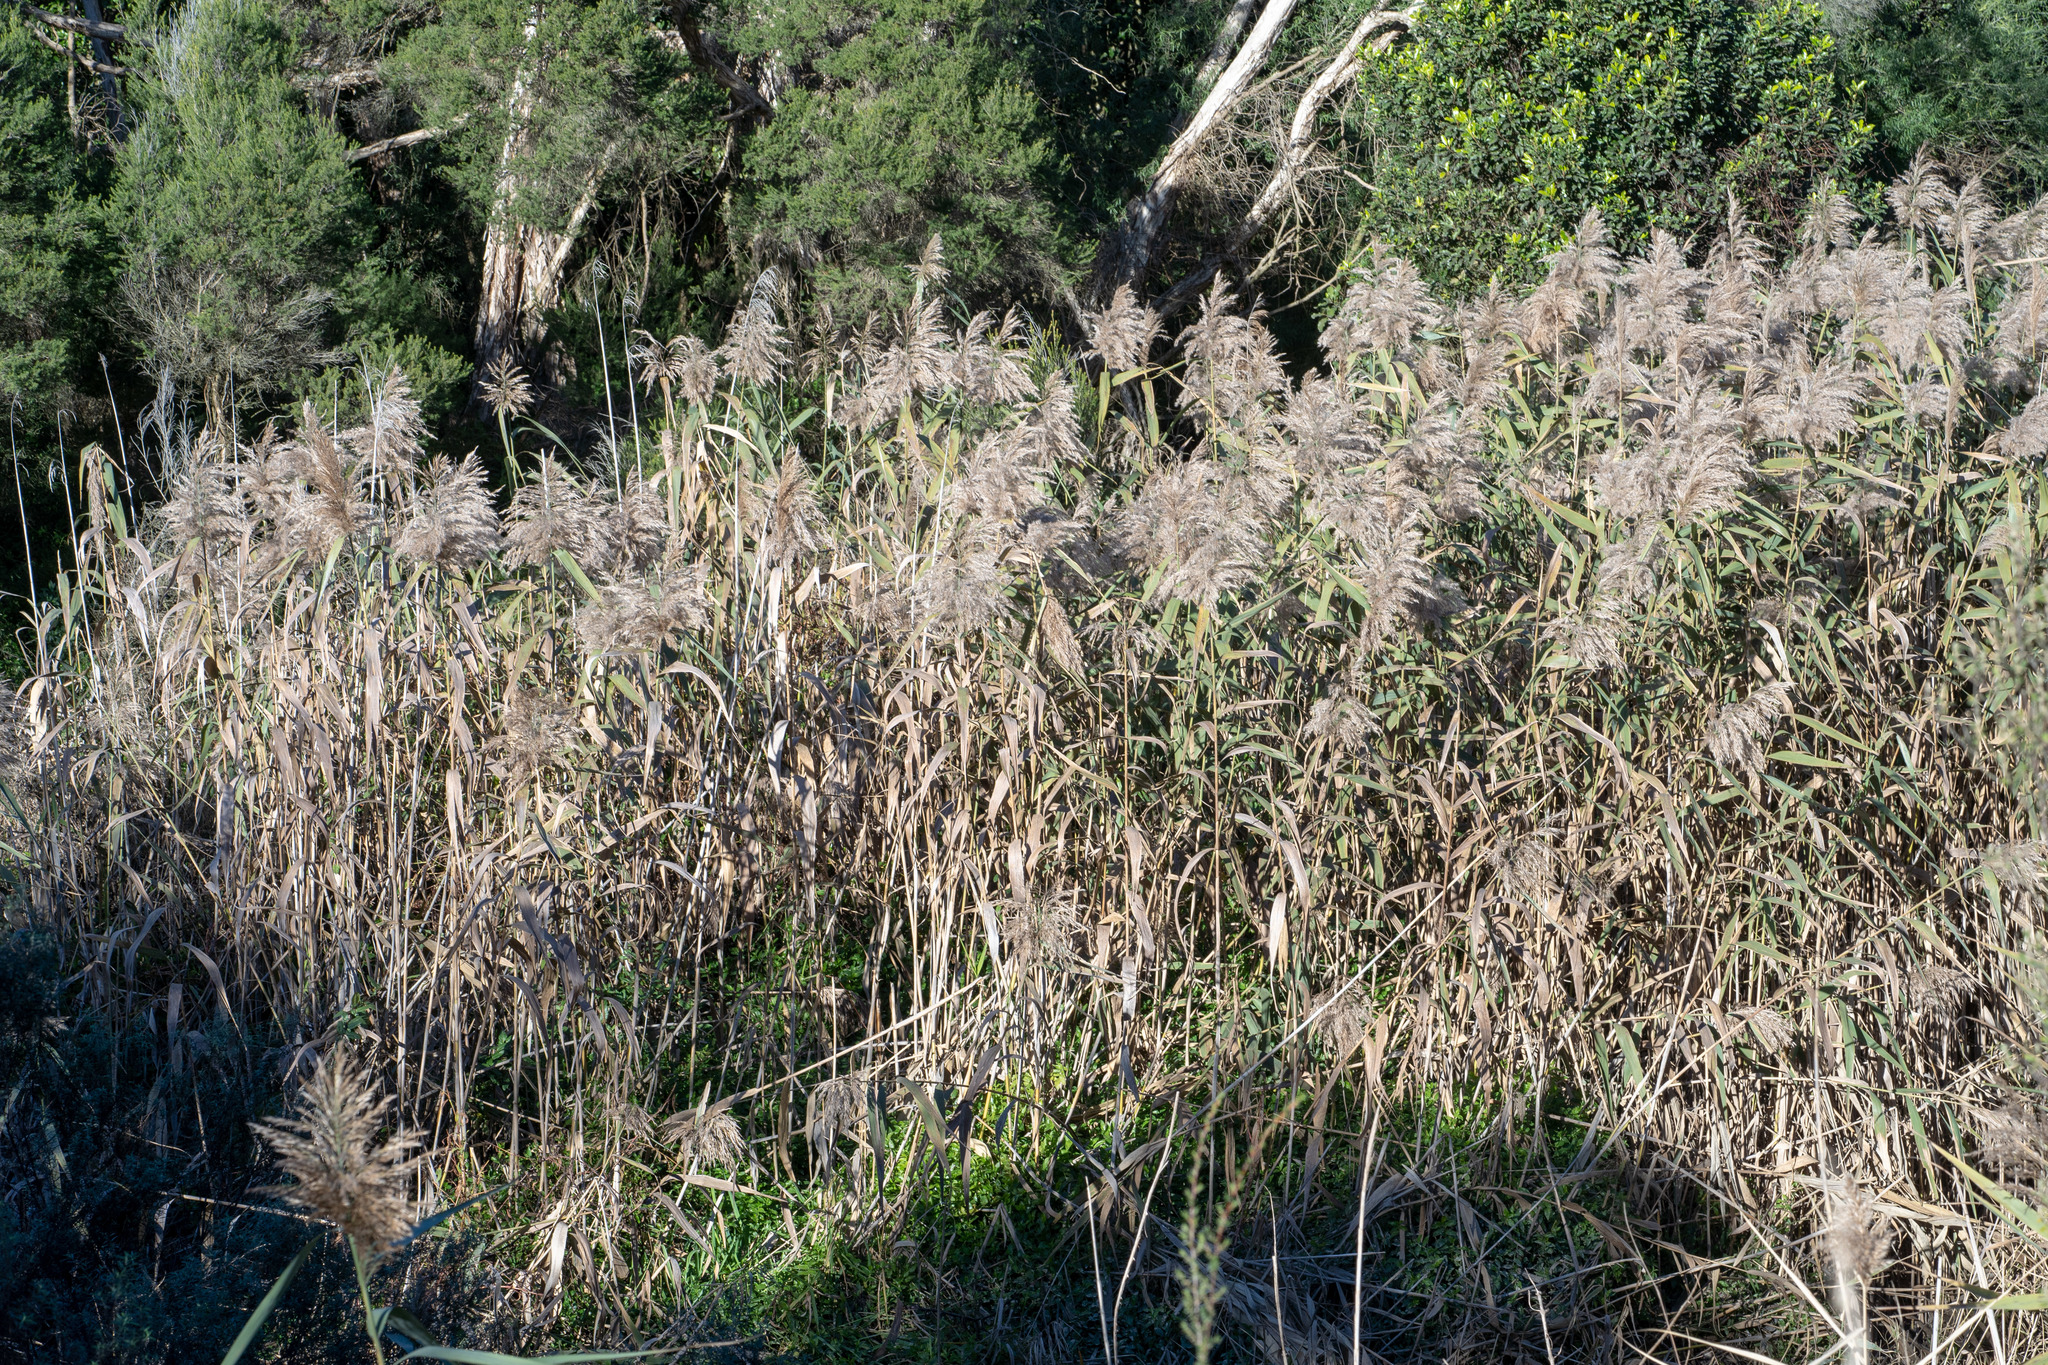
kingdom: Plantae
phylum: Tracheophyta
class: Liliopsida
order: Poales
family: Poaceae
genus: Phragmites
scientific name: Phragmites australis
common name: Common reed
